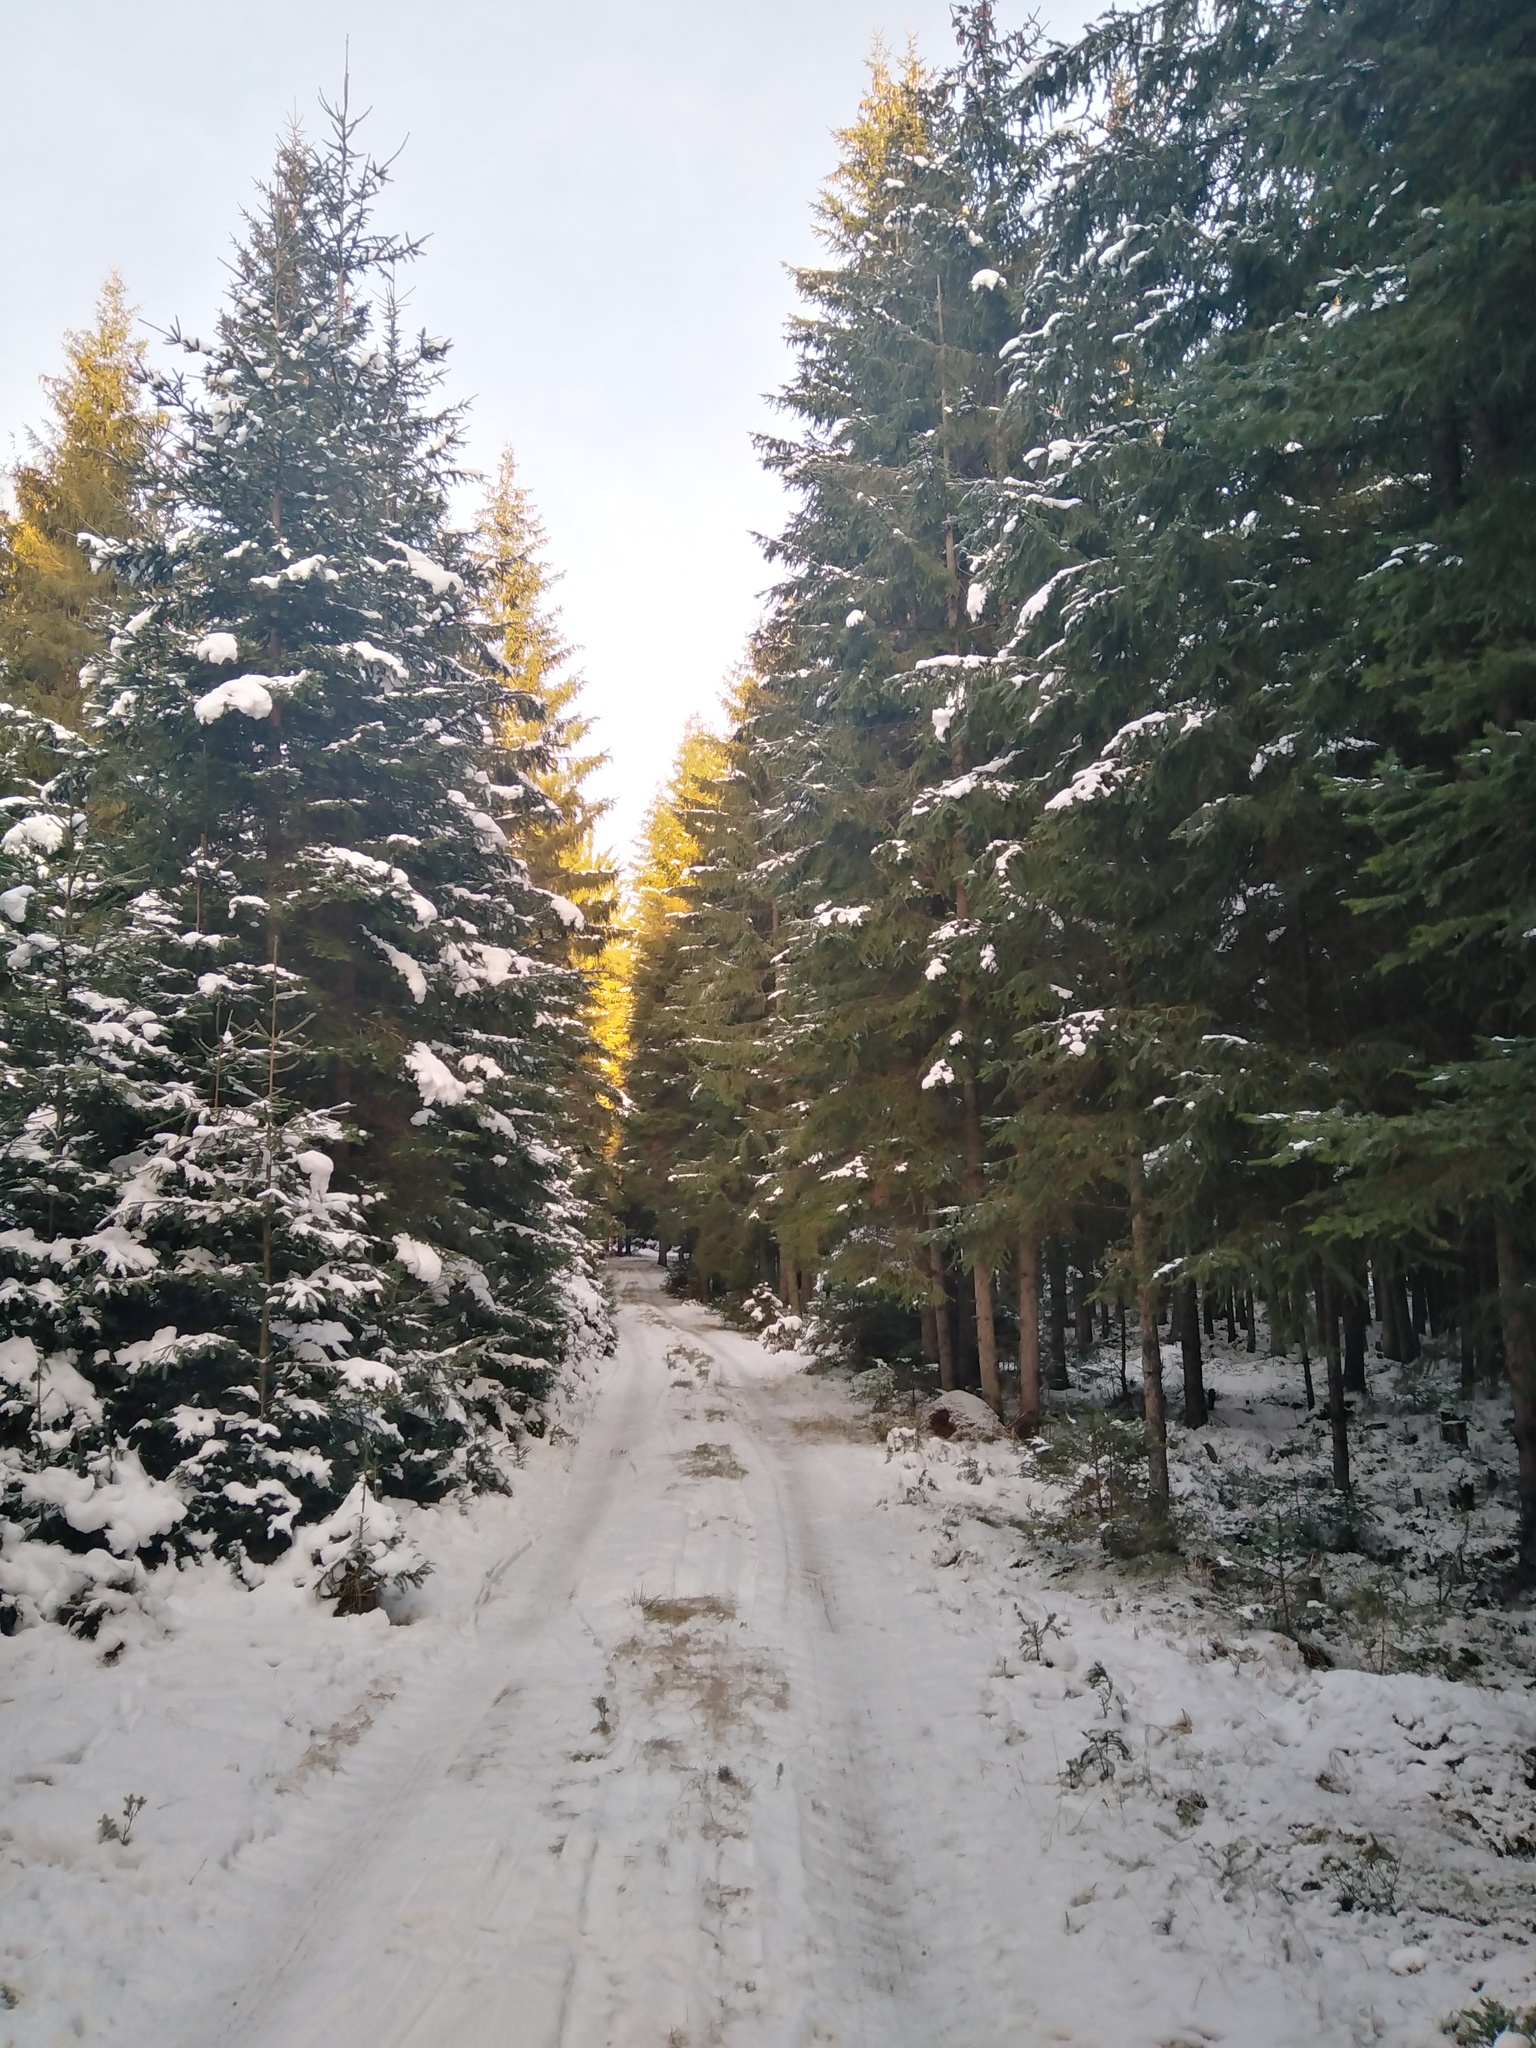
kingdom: Plantae
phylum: Tracheophyta
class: Pinopsida
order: Pinales
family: Pinaceae
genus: Picea
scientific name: Picea abies
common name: Norway spruce
